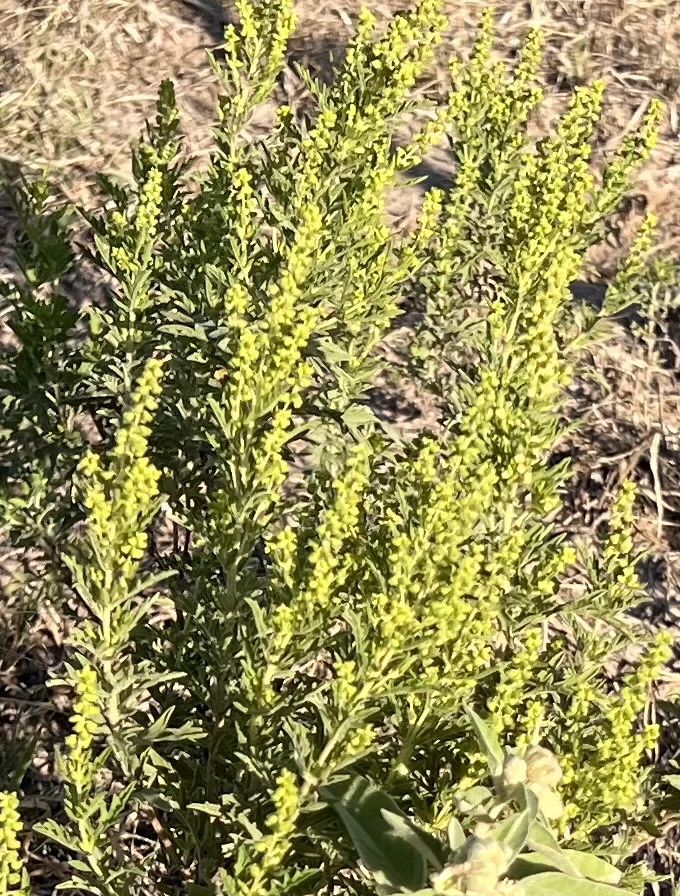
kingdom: Plantae
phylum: Tracheophyta
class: Magnoliopsida
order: Asterales
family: Asteraceae
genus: Ambrosia
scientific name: Ambrosia psilostachya
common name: Perennial ragweed
